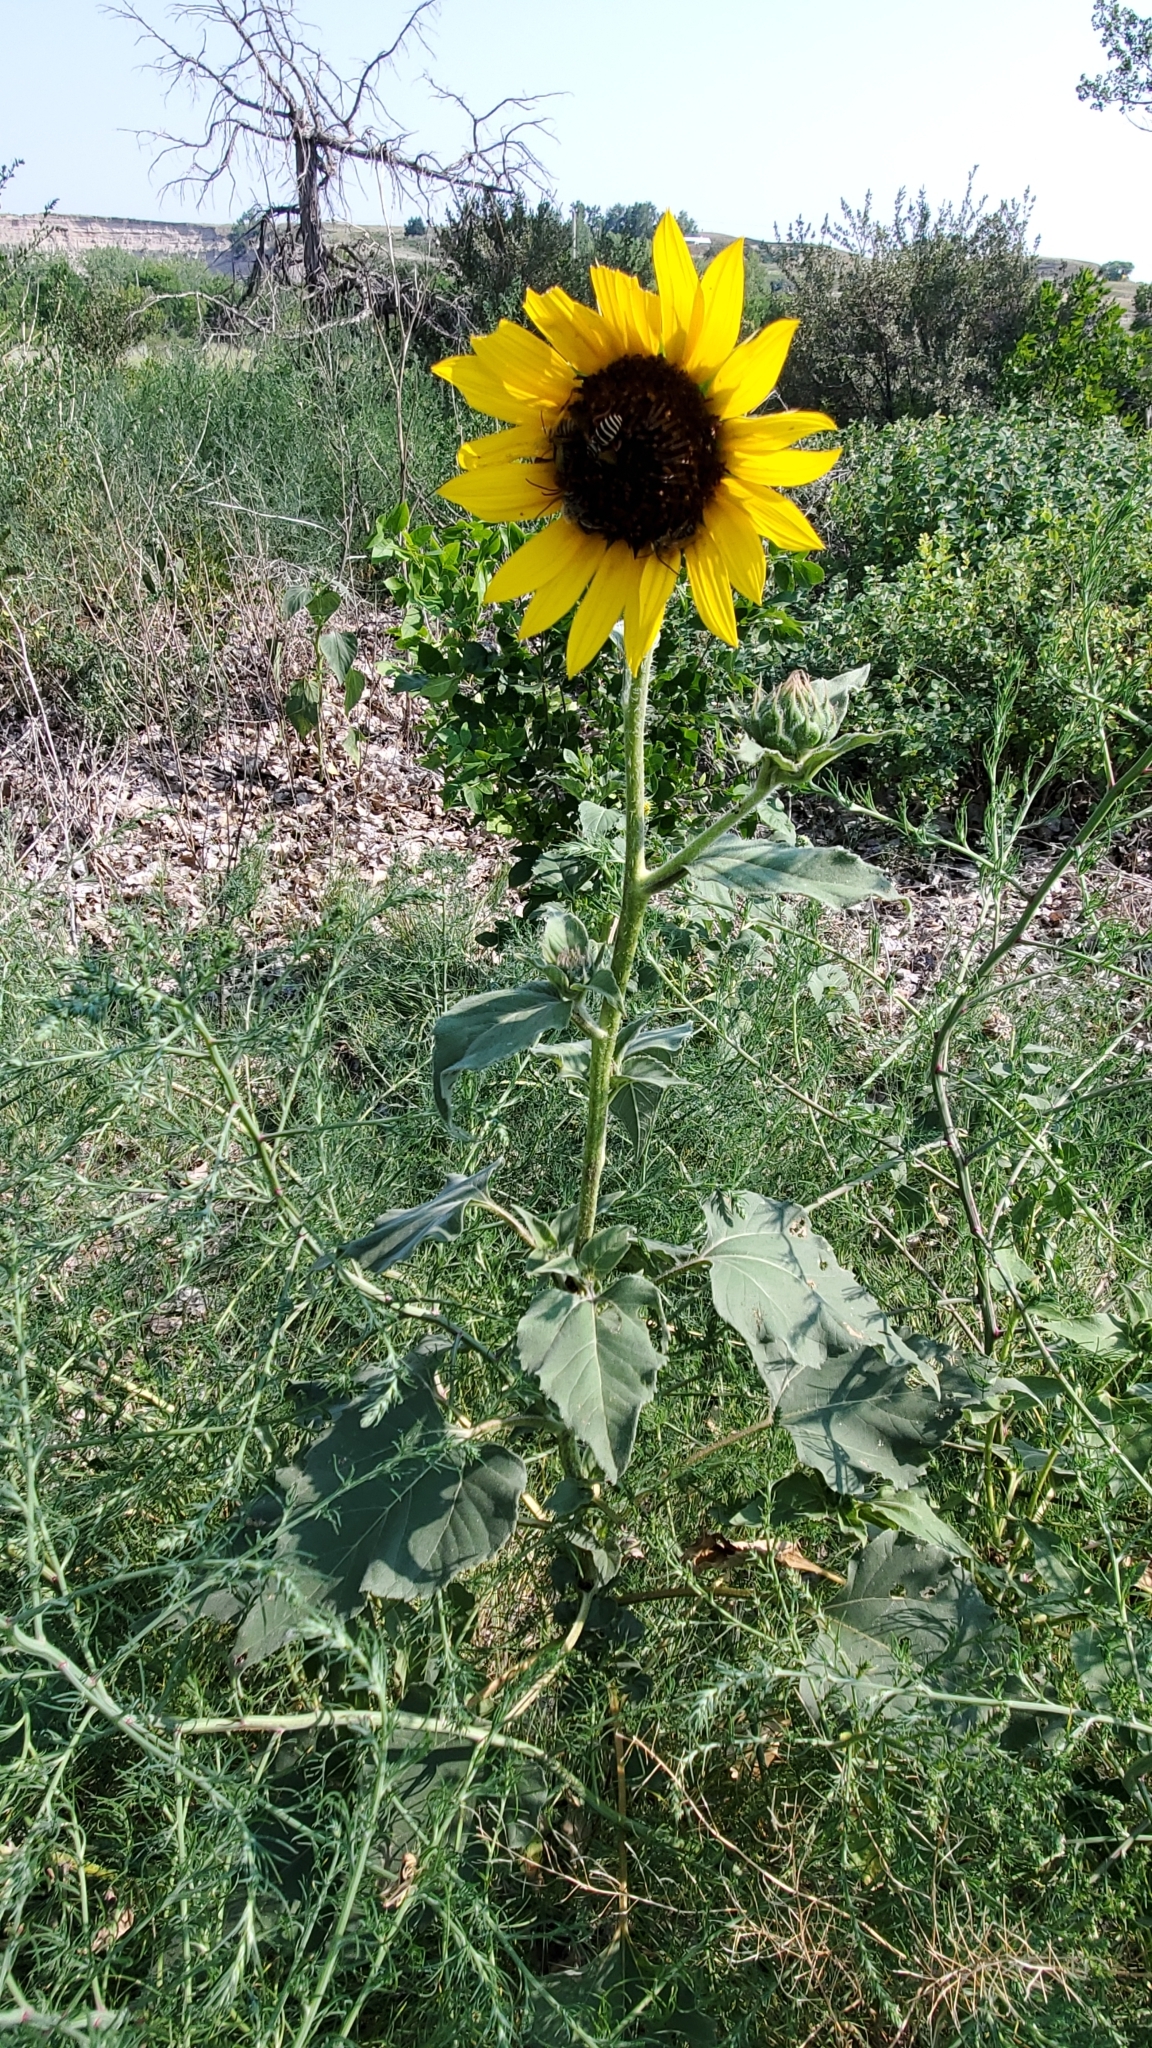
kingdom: Plantae
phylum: Tracheophyta
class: Magnoliopsida
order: Asterales
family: Asteraceae
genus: Helianthus
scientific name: Helianthus annuus
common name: Sunflower
